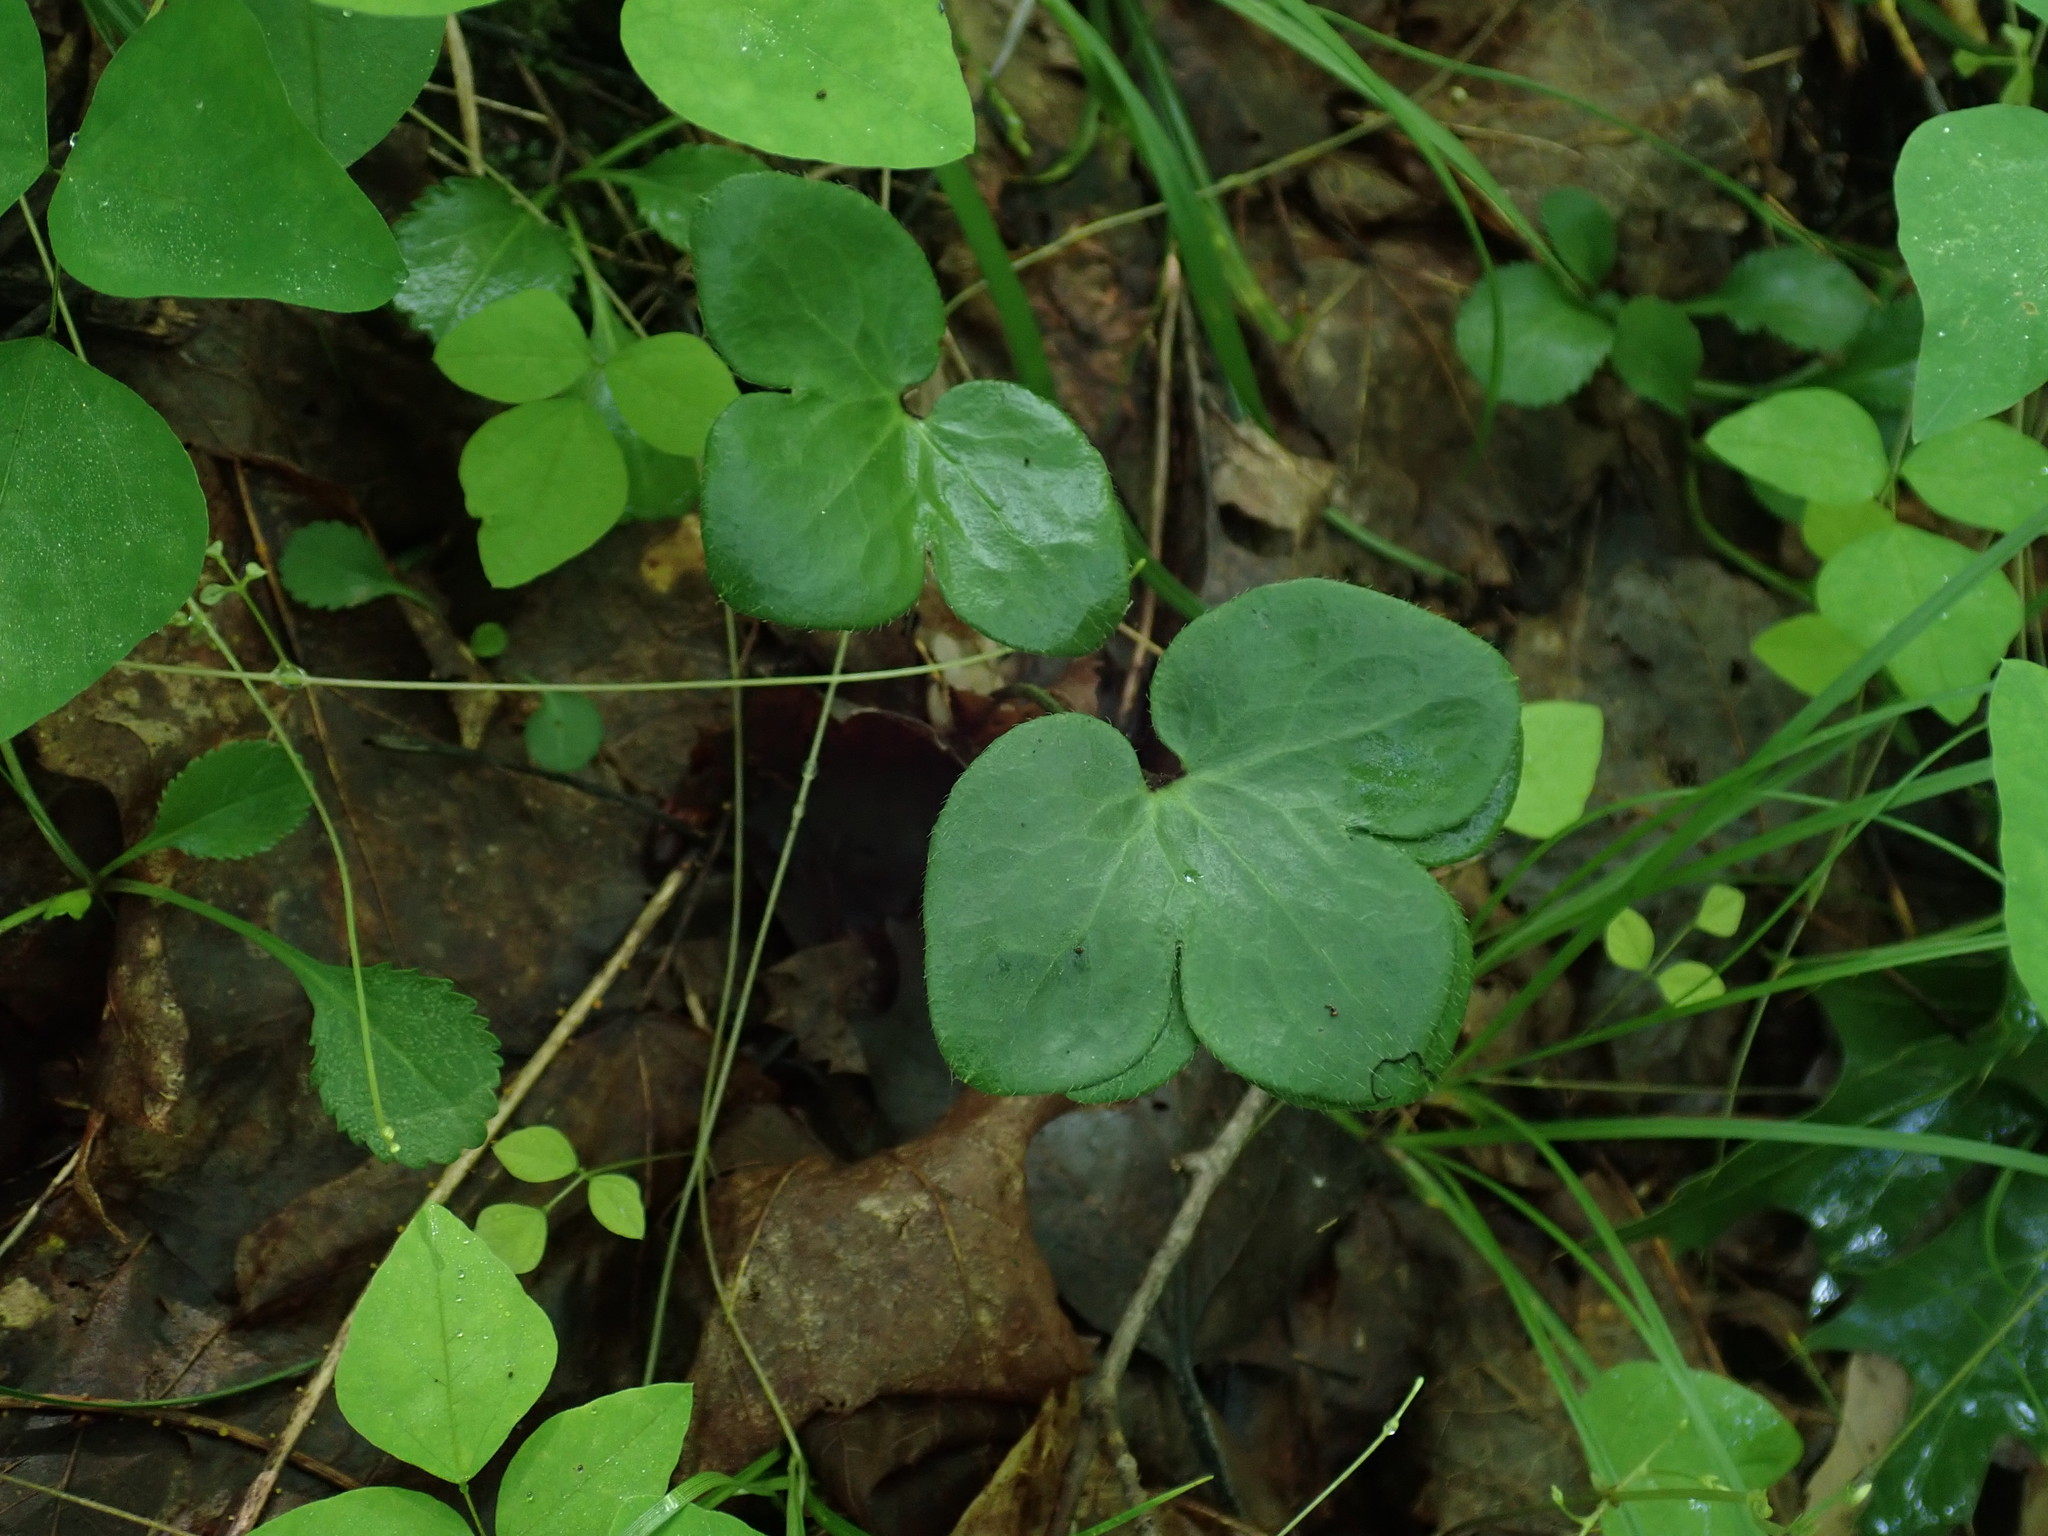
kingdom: Plantae
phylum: Tracheophyta
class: Magnoliopsida
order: Ranunculales
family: Ranunculaceae
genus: Hepatica
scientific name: Hepatica americana
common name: American hepatica
